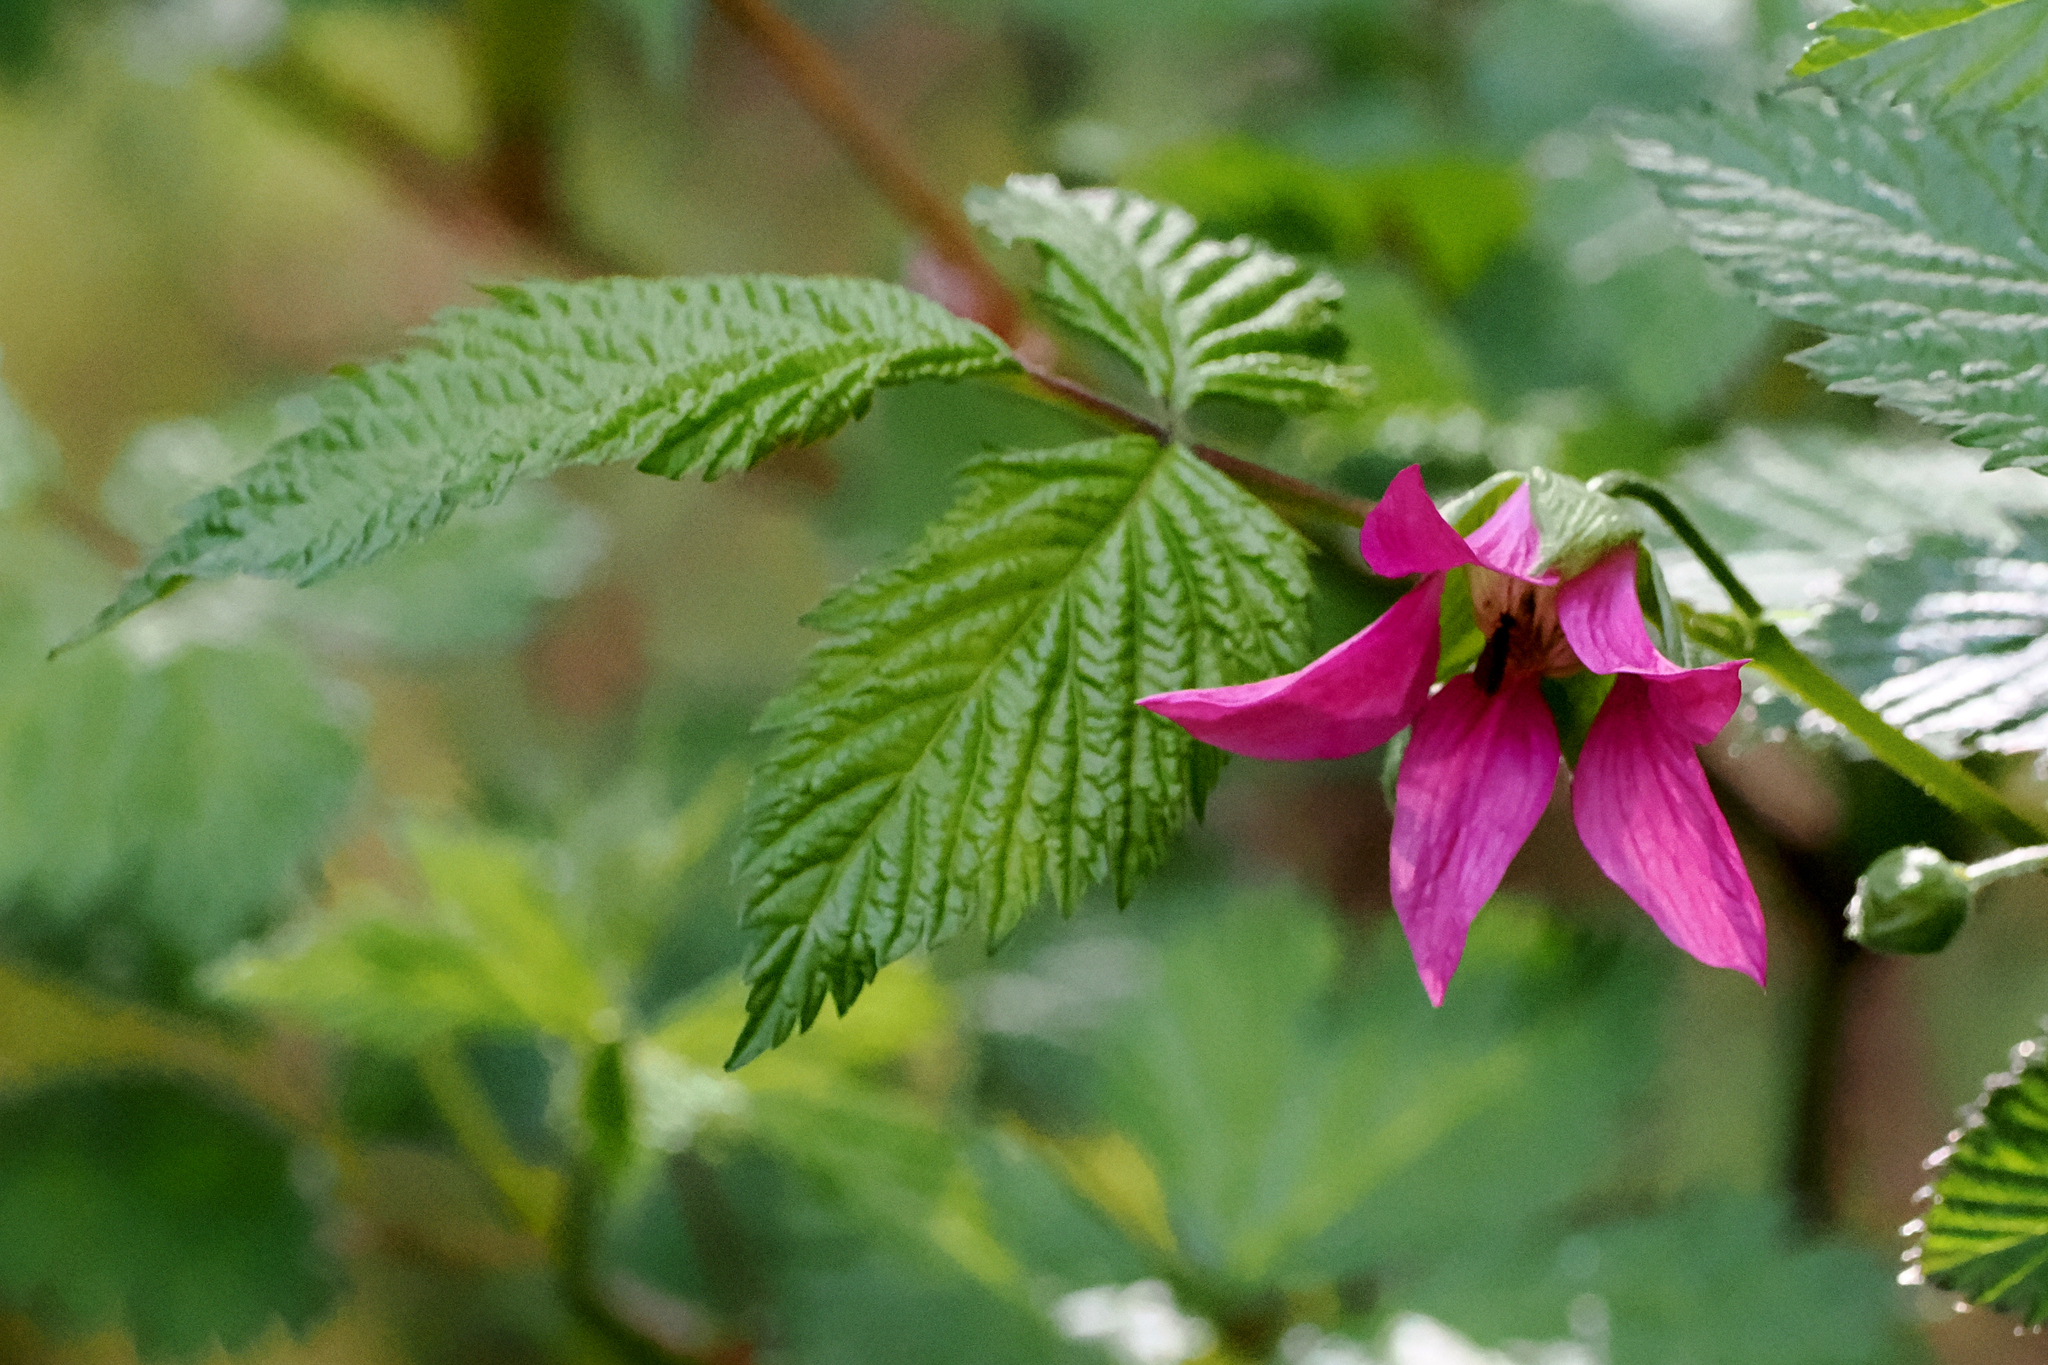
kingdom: Plantae
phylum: Tracheophyta
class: Magnoliopsida
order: Rosales
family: Rosaceae
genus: Rubus
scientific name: Rubus spectabilis
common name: Salmonberry
